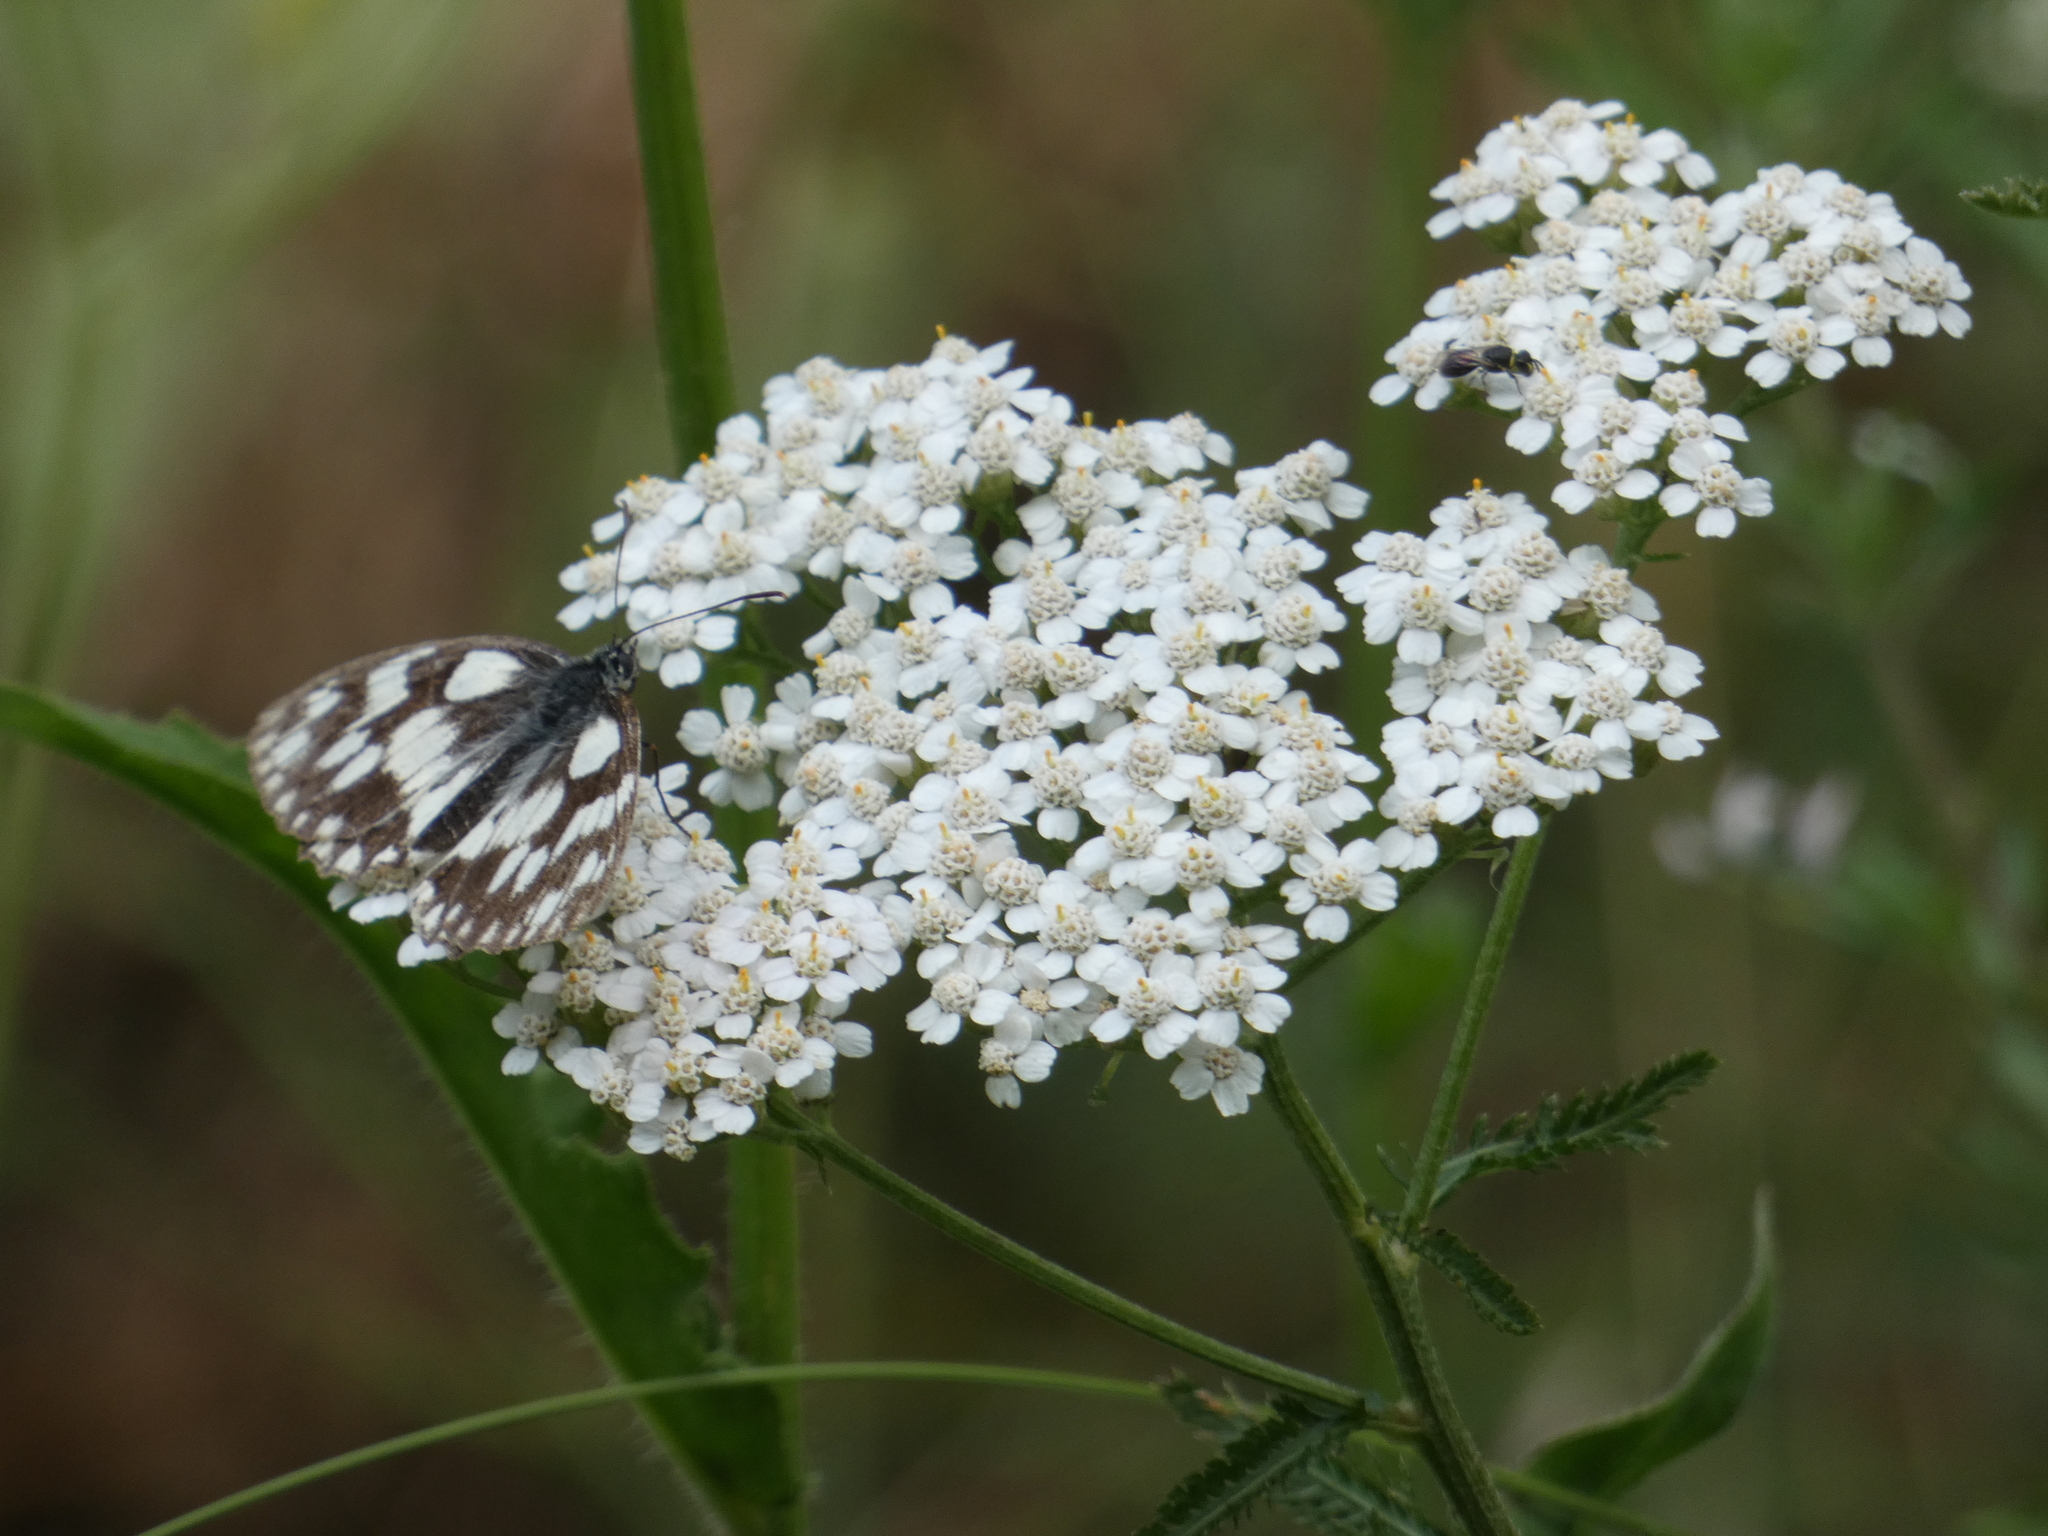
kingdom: Animalia
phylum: Arthropoda
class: Insecta
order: Lepidoptera
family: Nymphalidae
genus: Melanargia
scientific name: Melanargia galathea
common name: Marbled white
